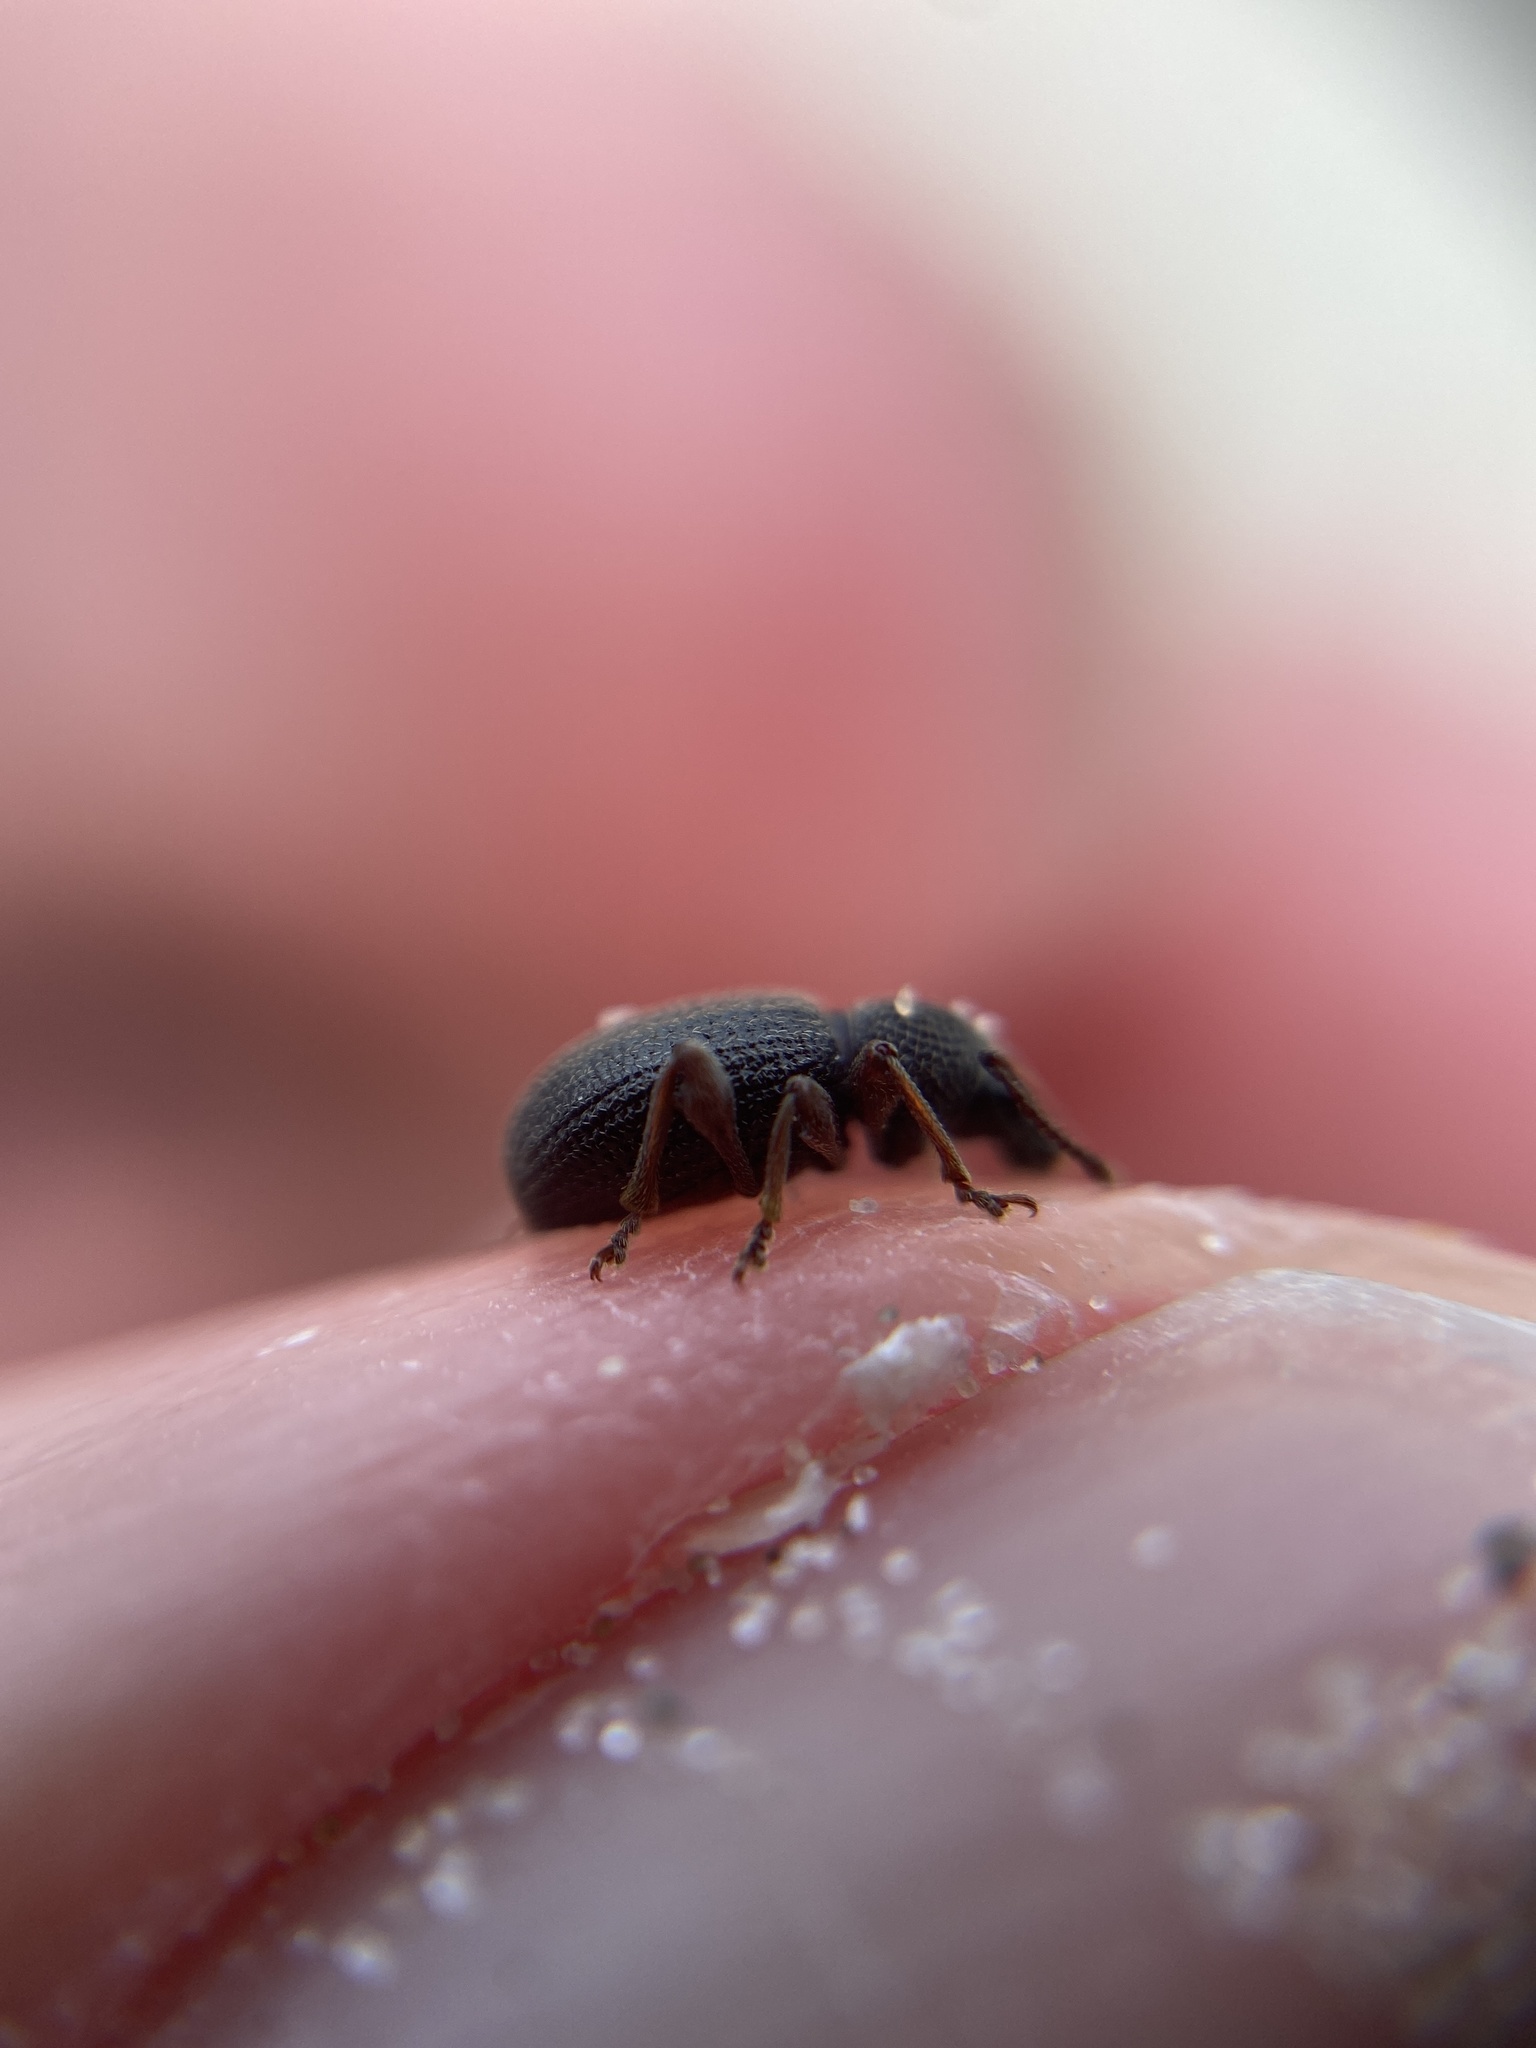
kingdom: Animalia
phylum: Arthropoda
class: Insecta
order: Coleoptera
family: Curculionidae
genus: Otiorhynchus
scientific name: Otiorhynchus ovatus
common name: Strawberry root weevil
